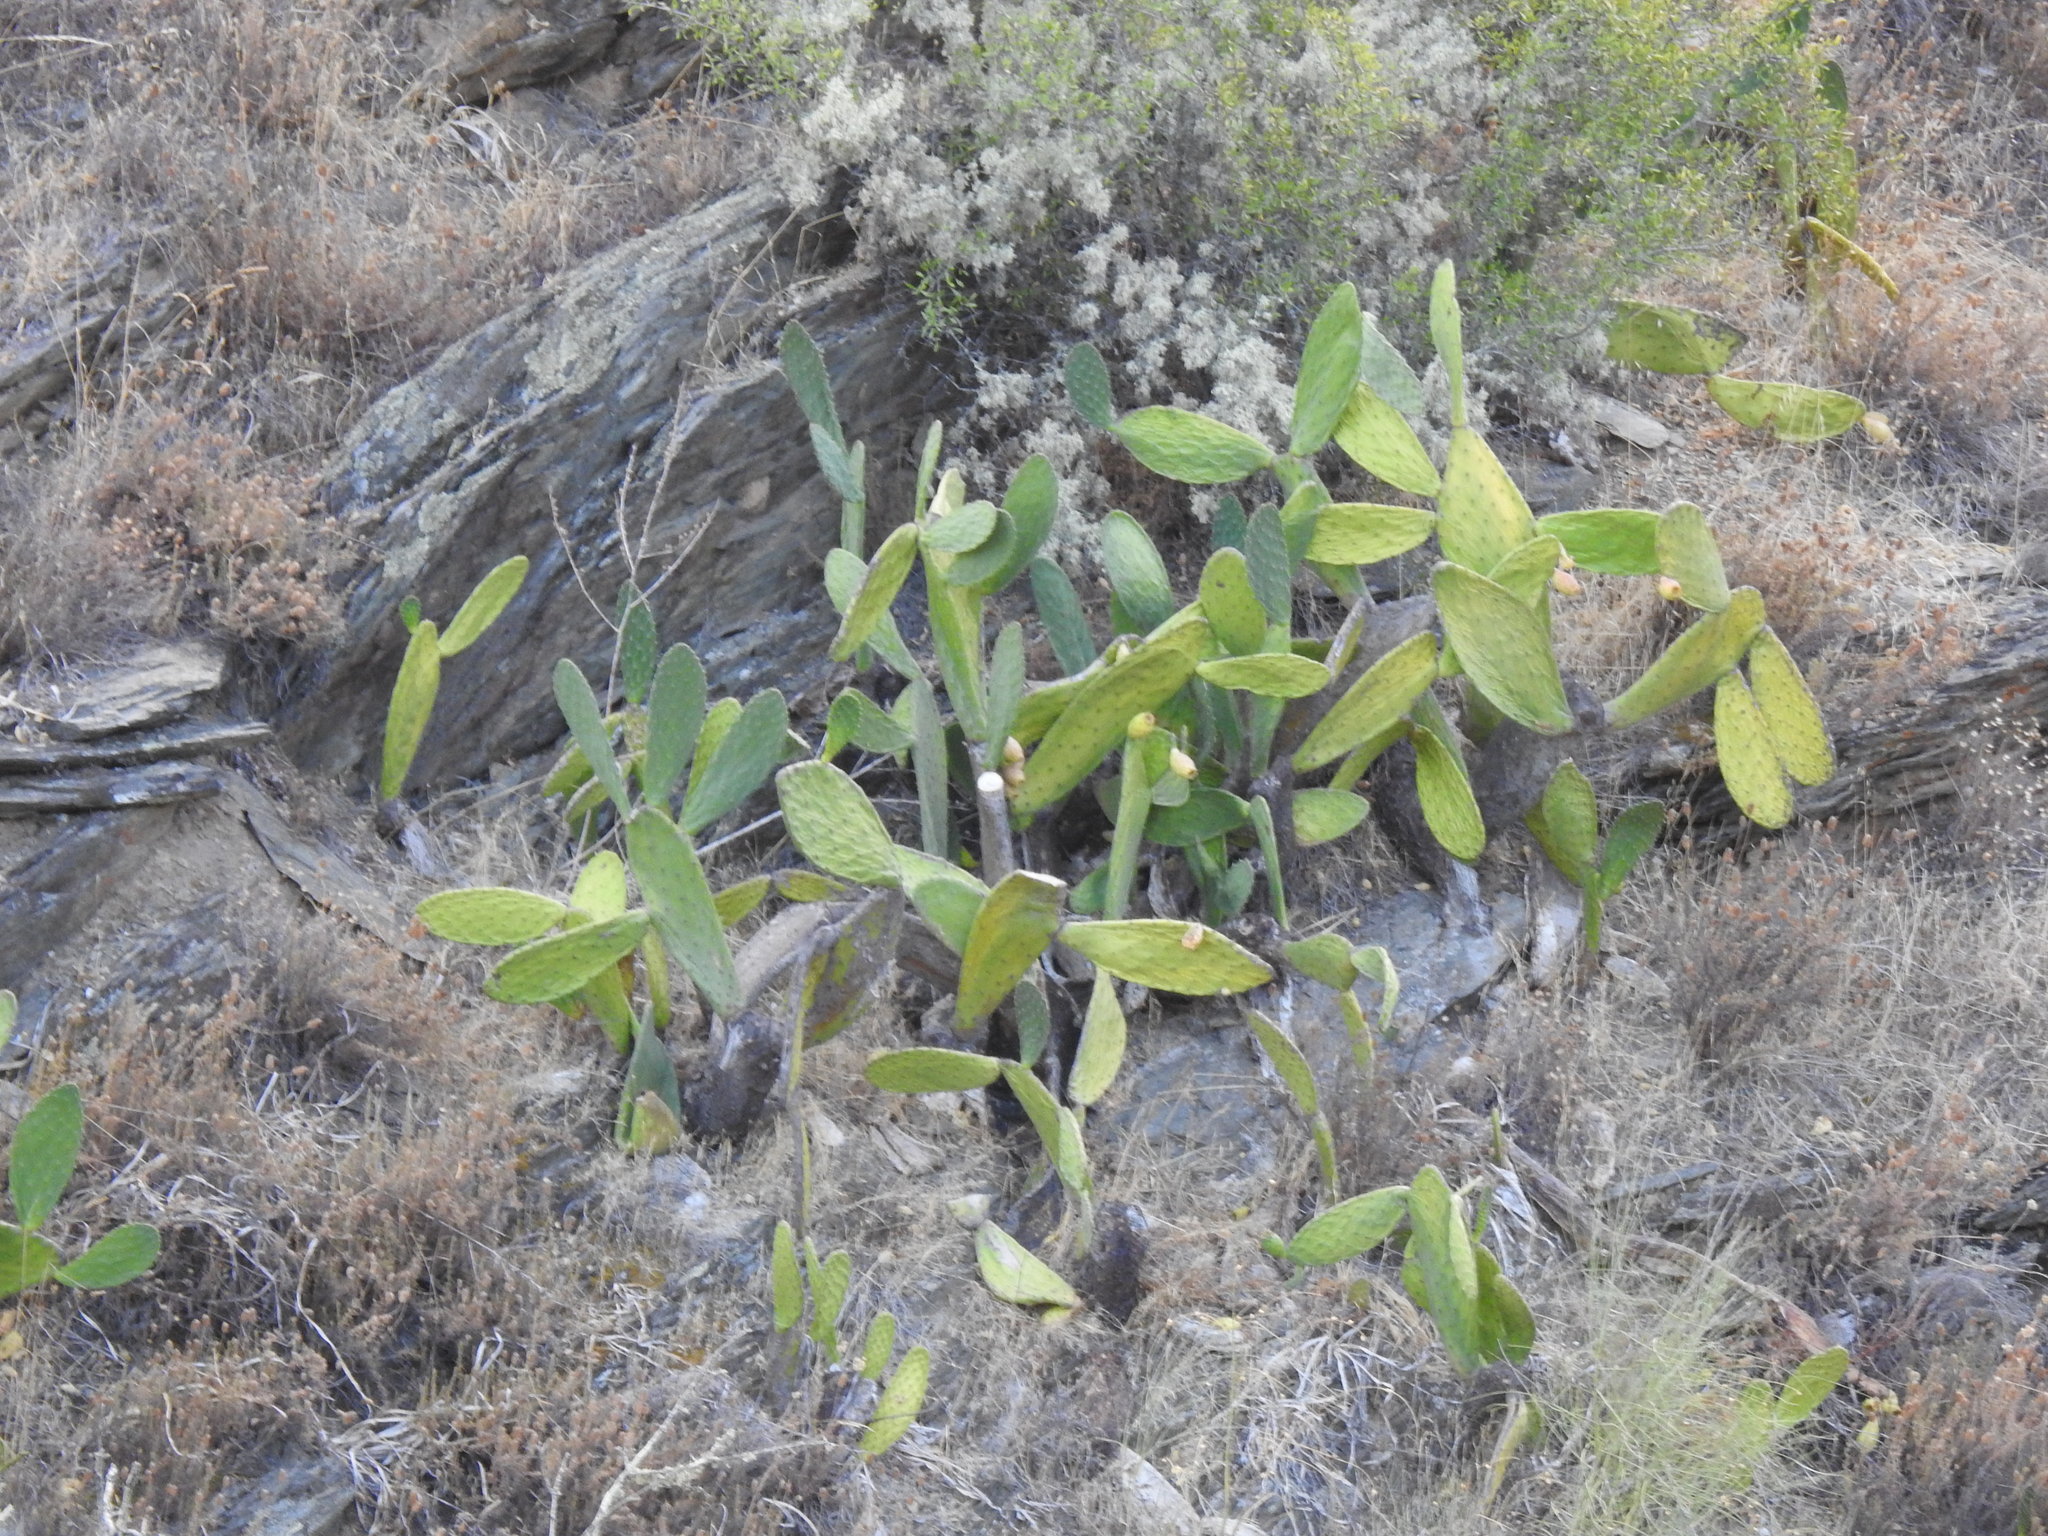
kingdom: Plantae
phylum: Tracheophyta
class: Magnoliopsida
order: Caryophyllales
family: Cactaceae
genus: Opuntia
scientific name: Opuntia ficus-indica
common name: Barbary fig
